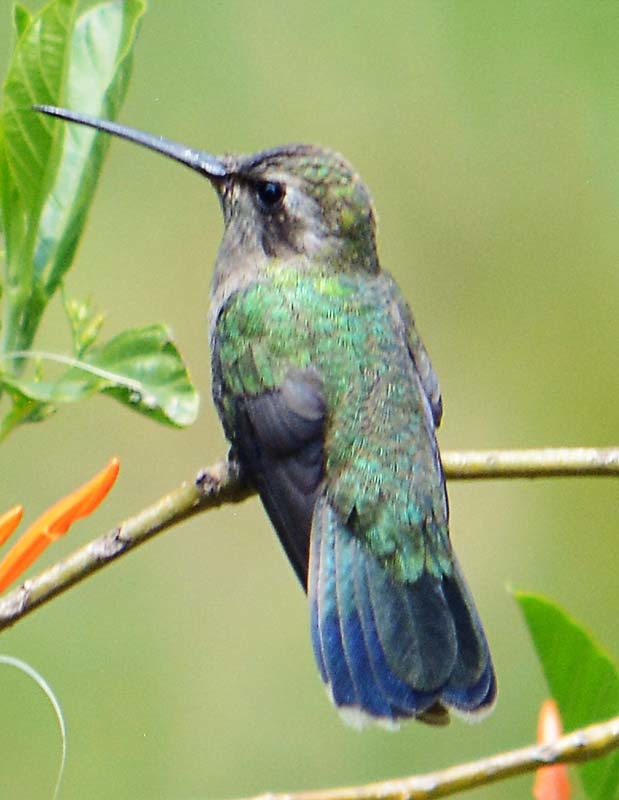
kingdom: Animalia
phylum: Chordata
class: Aves
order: Apodiformes
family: Trochilidae
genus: Cynanthus
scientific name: Cynanthus latirostris
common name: Broad-billed hummingbird
